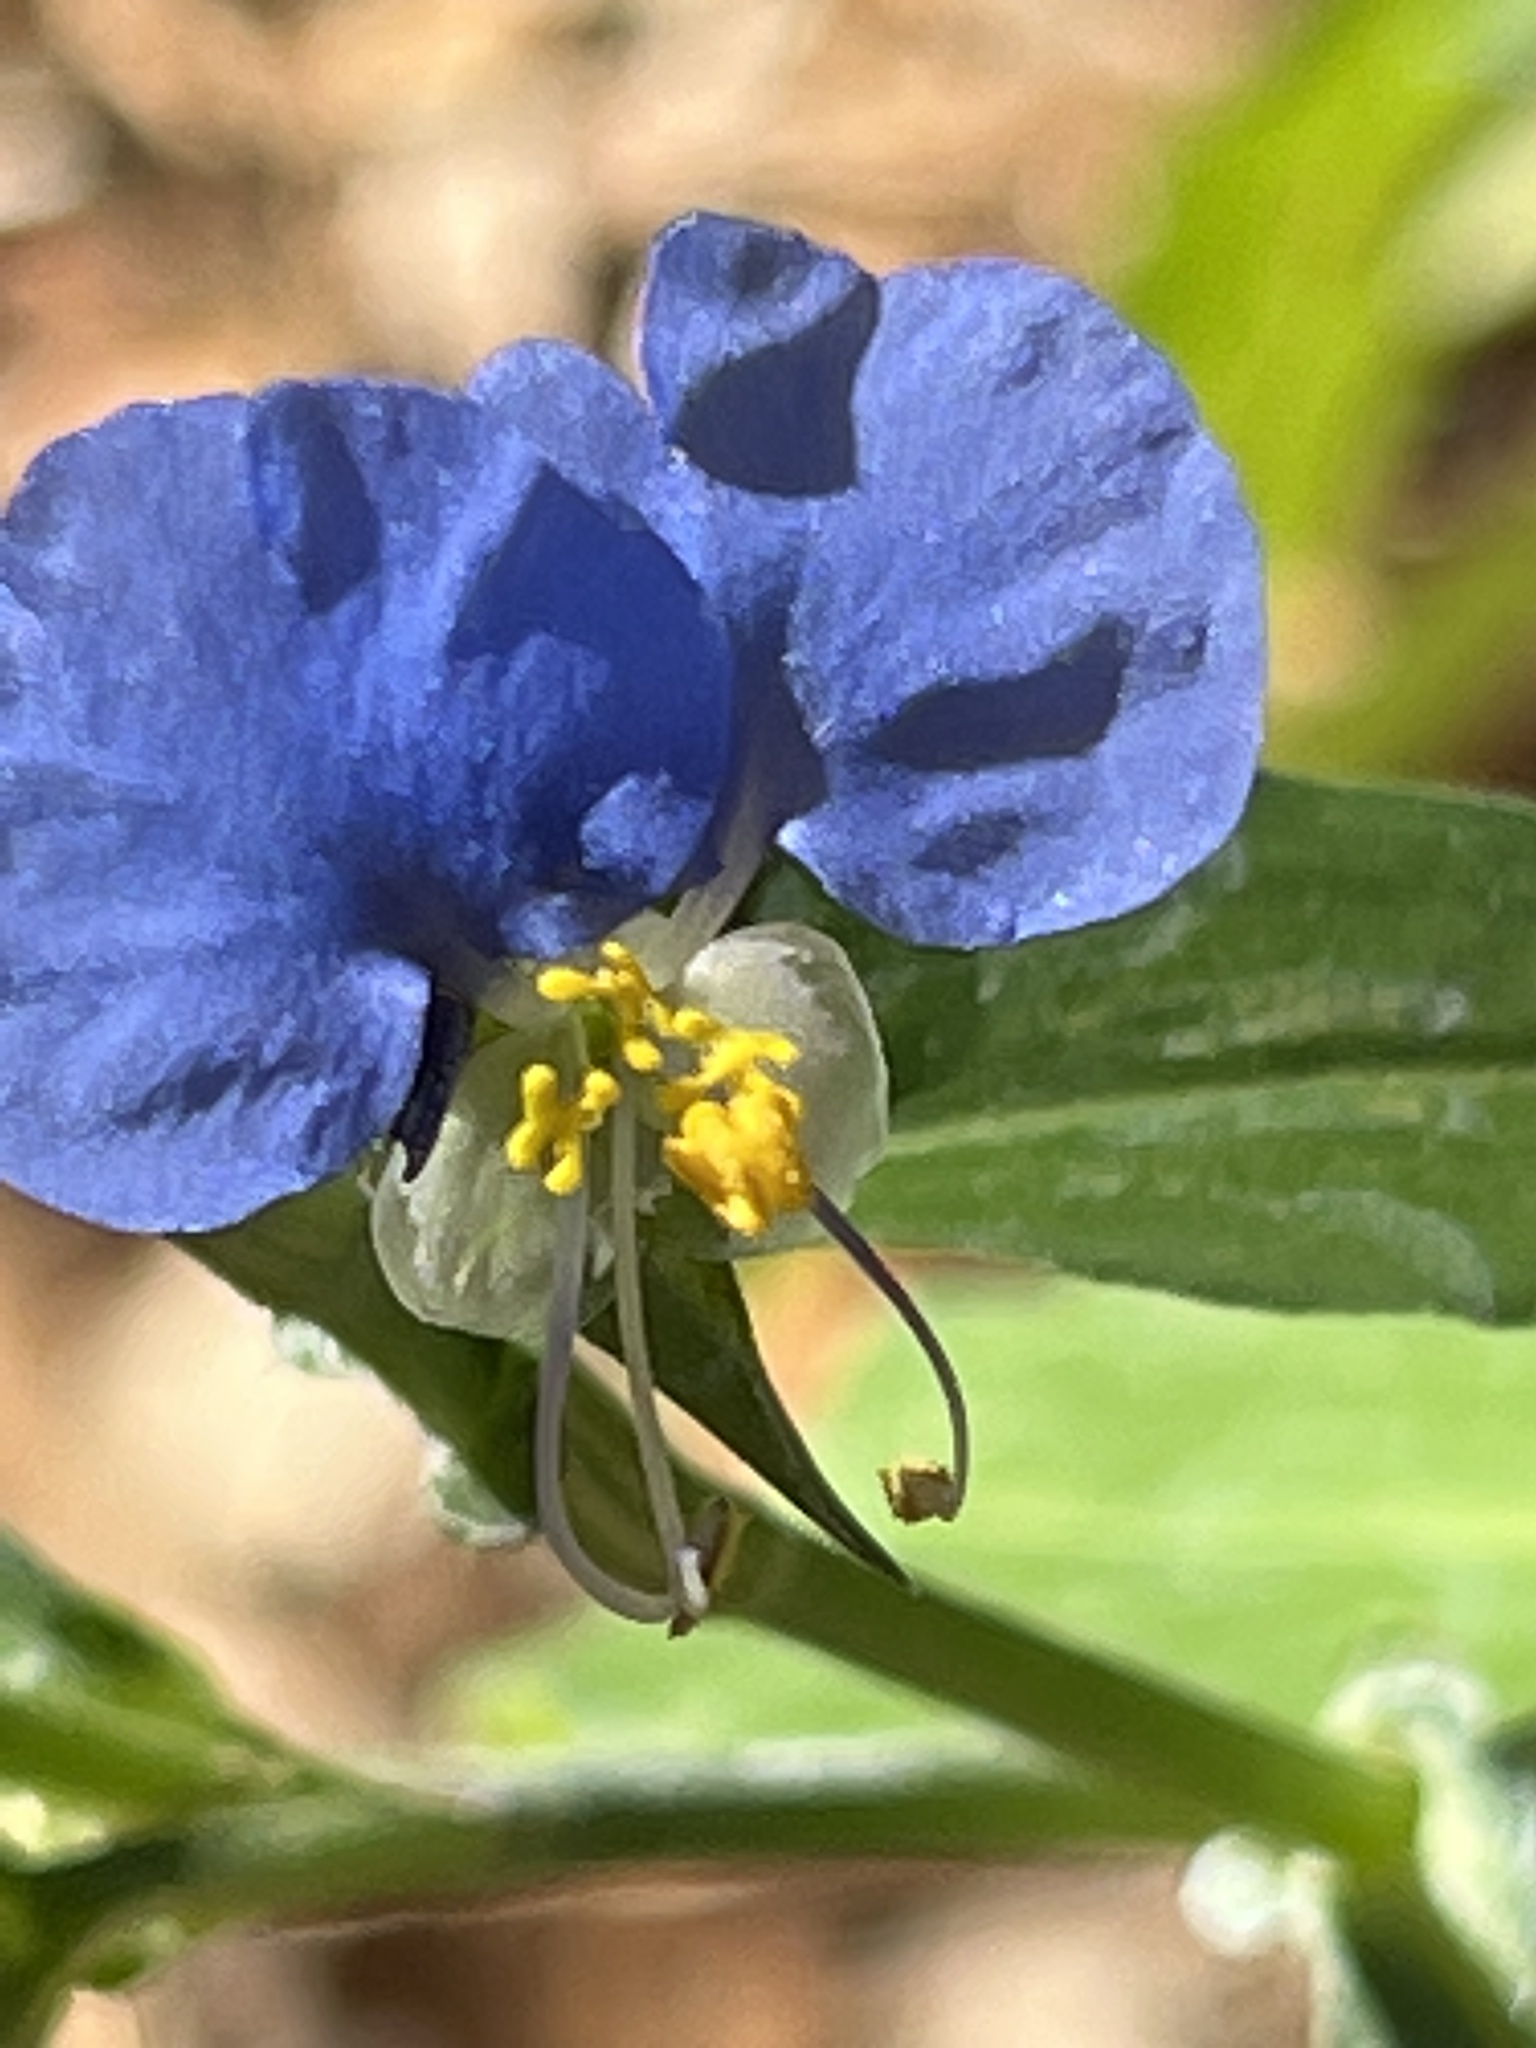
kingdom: Plantae
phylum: Tracheophyta
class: Liliopsida
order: Commelinales
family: Commelinaceae
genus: Commelina
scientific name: Commelina erecta
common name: Blousel blommetjie
